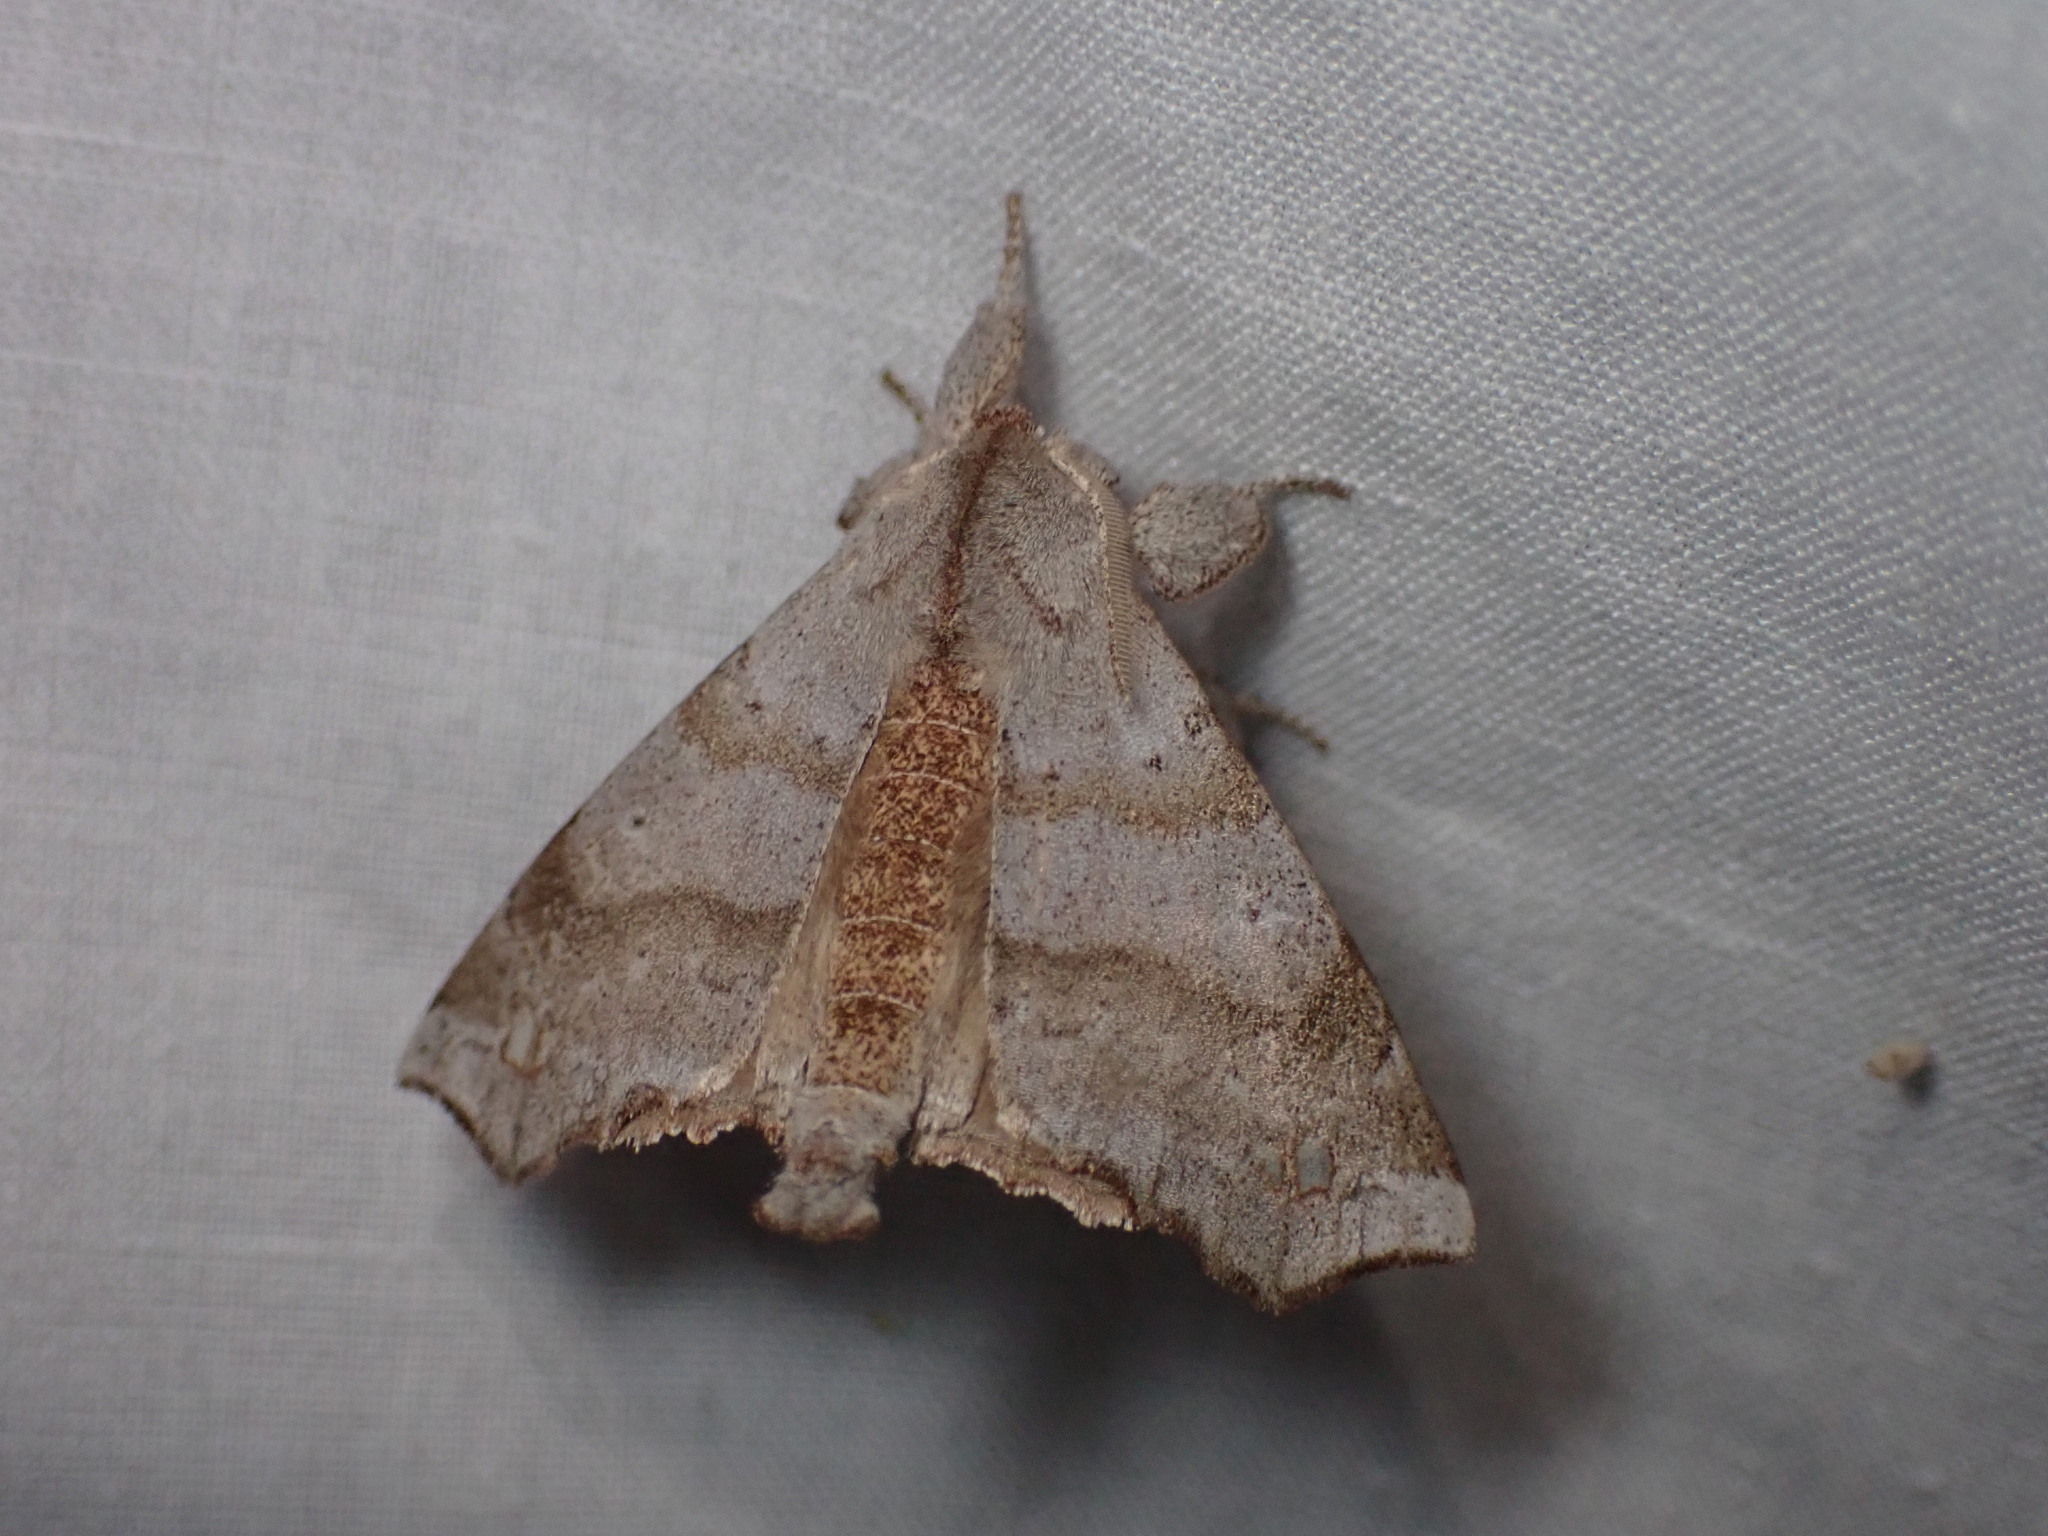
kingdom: Animalia
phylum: Arthropoda
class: Insecta
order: Lepidoptera
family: Apatelodidae
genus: Olceclostera
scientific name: Olceclostera angelica
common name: Angel moth
